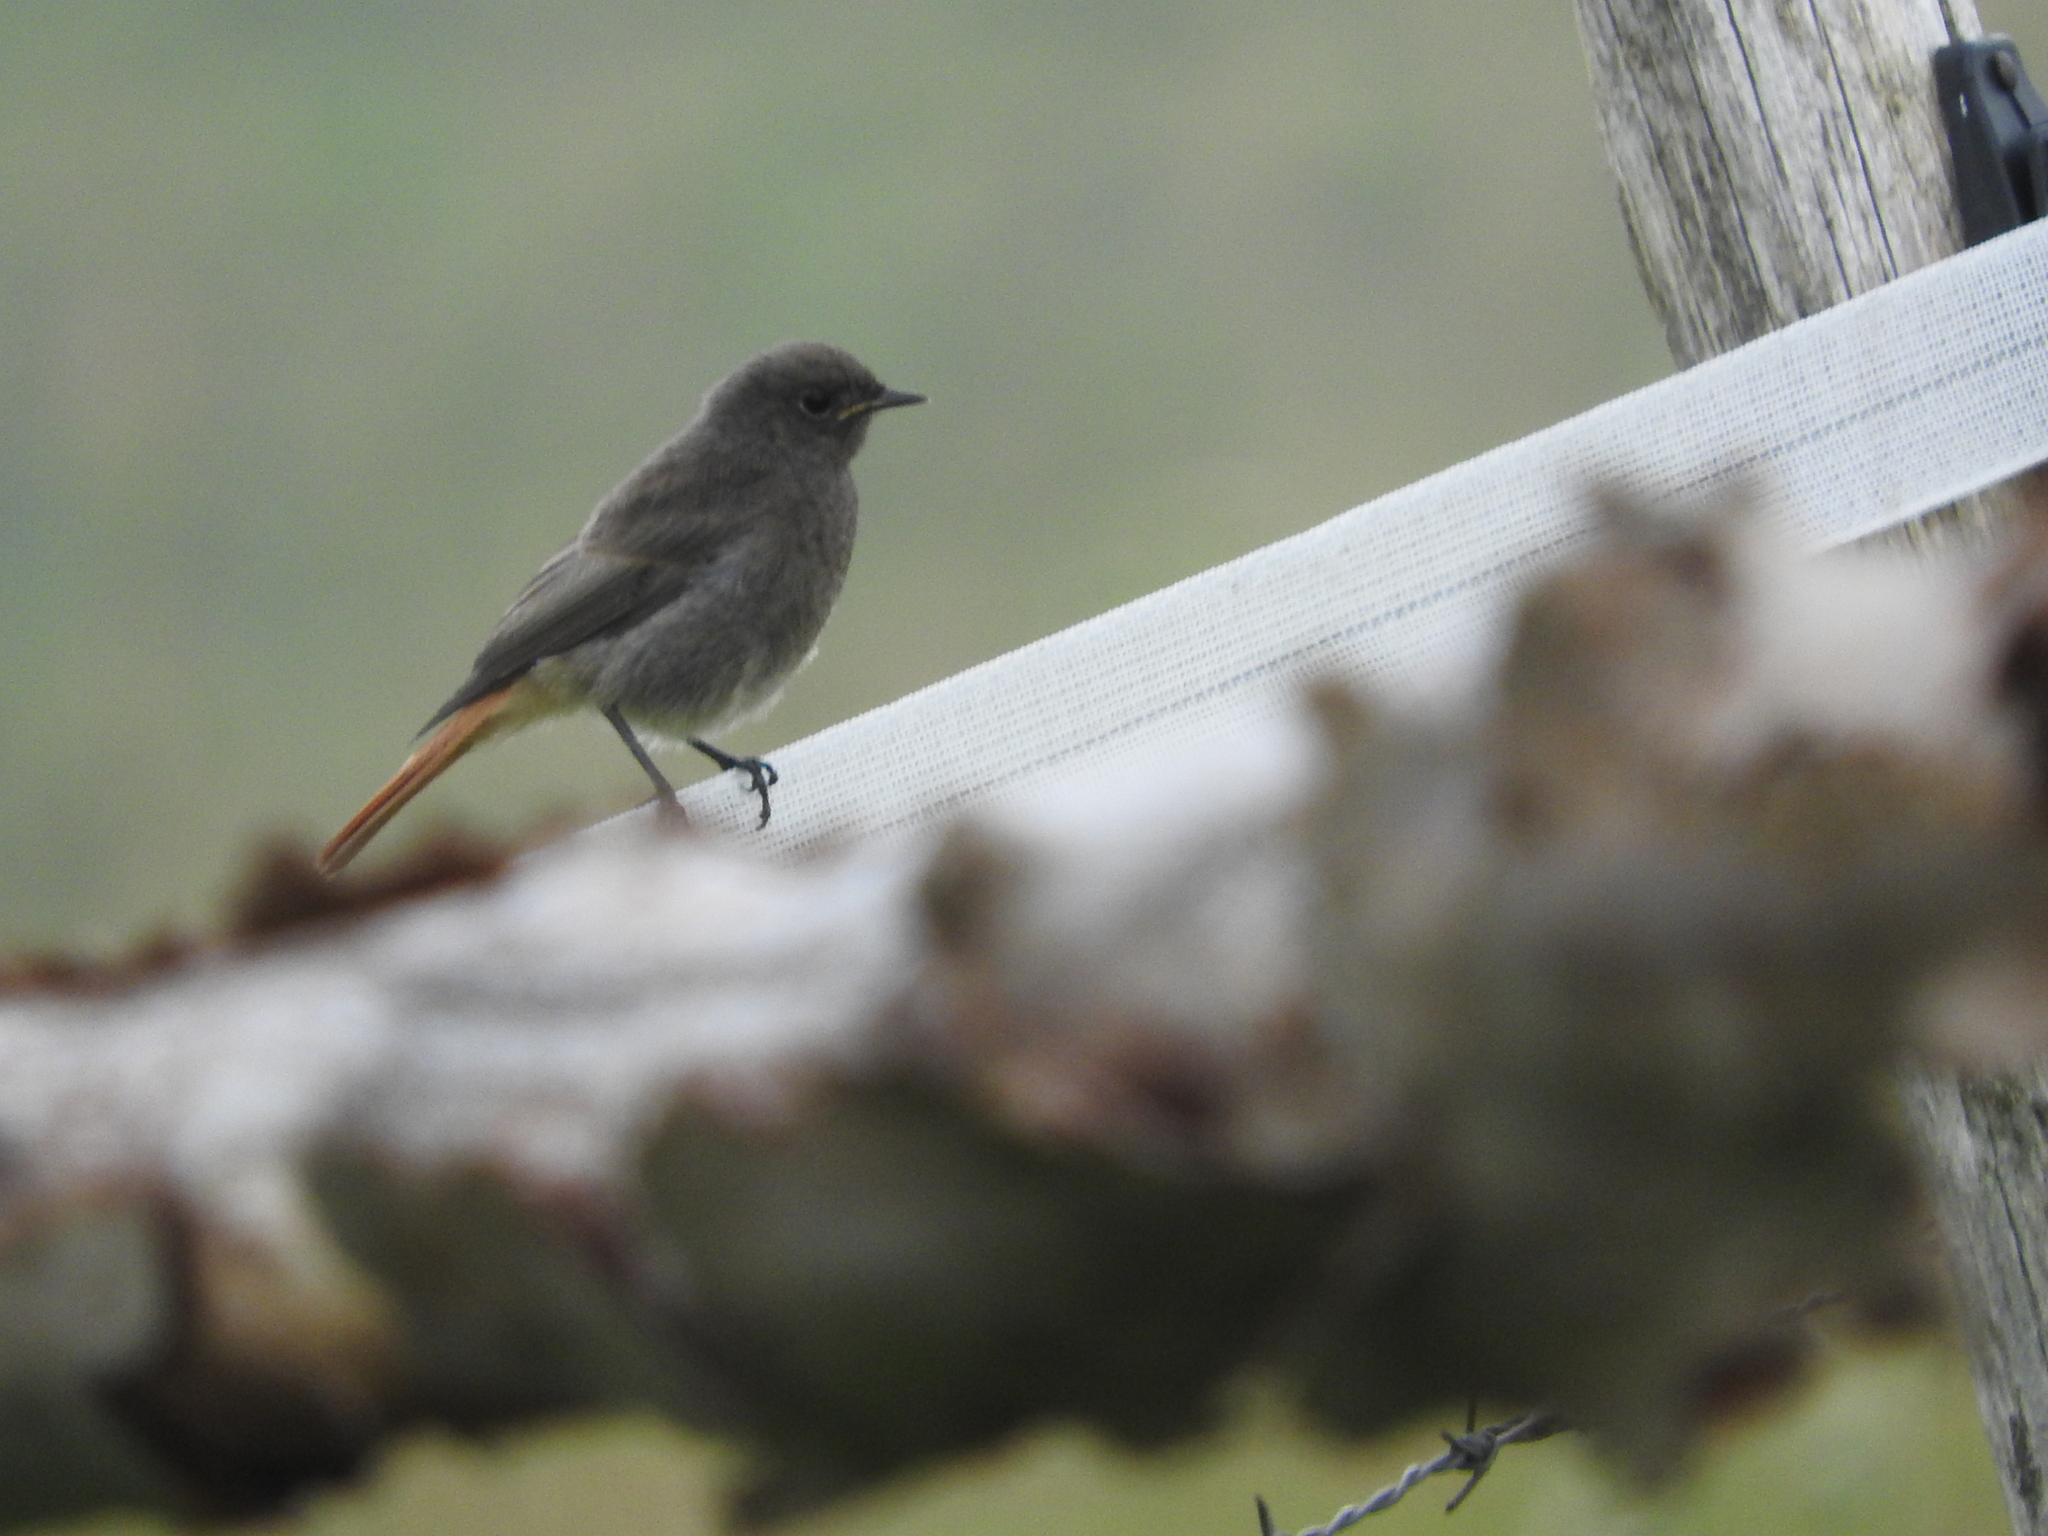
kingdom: Animalia
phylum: Chordata
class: Aves
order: Passeriformes
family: Muscicapidae
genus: Phoenicurus
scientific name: Phoenicurus ochruros
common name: Black redstart
